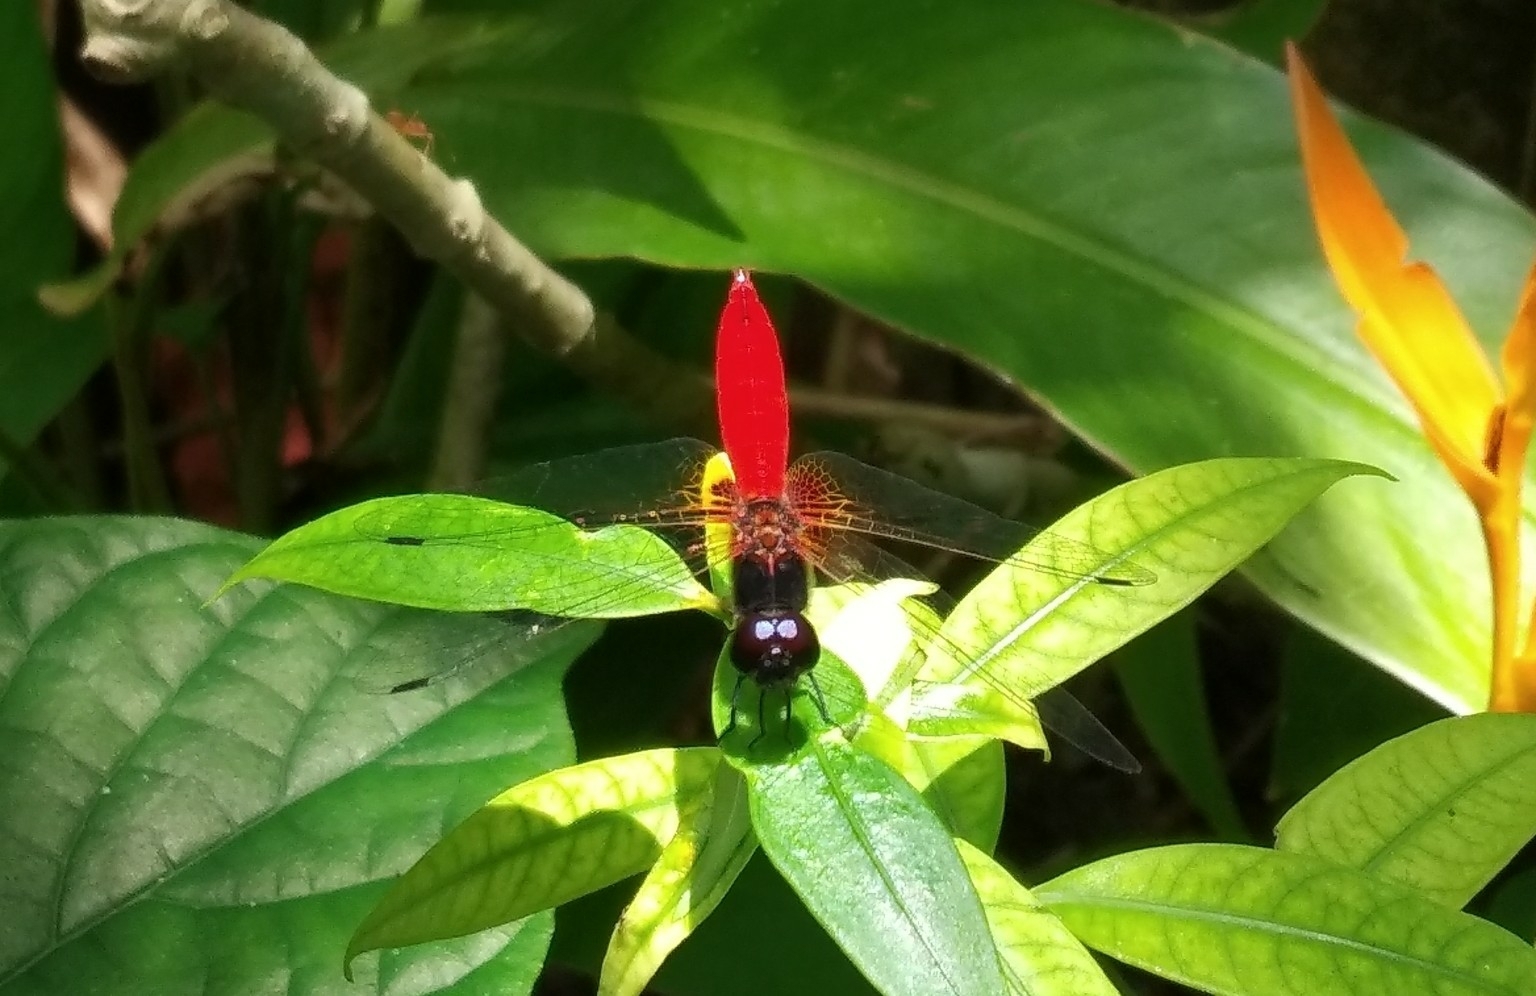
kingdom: Animalia
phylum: Arthropoda
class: Insecta
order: Odonata
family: Libellulidae
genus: Aethriamanta
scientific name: Aethriamanta brevipennis
